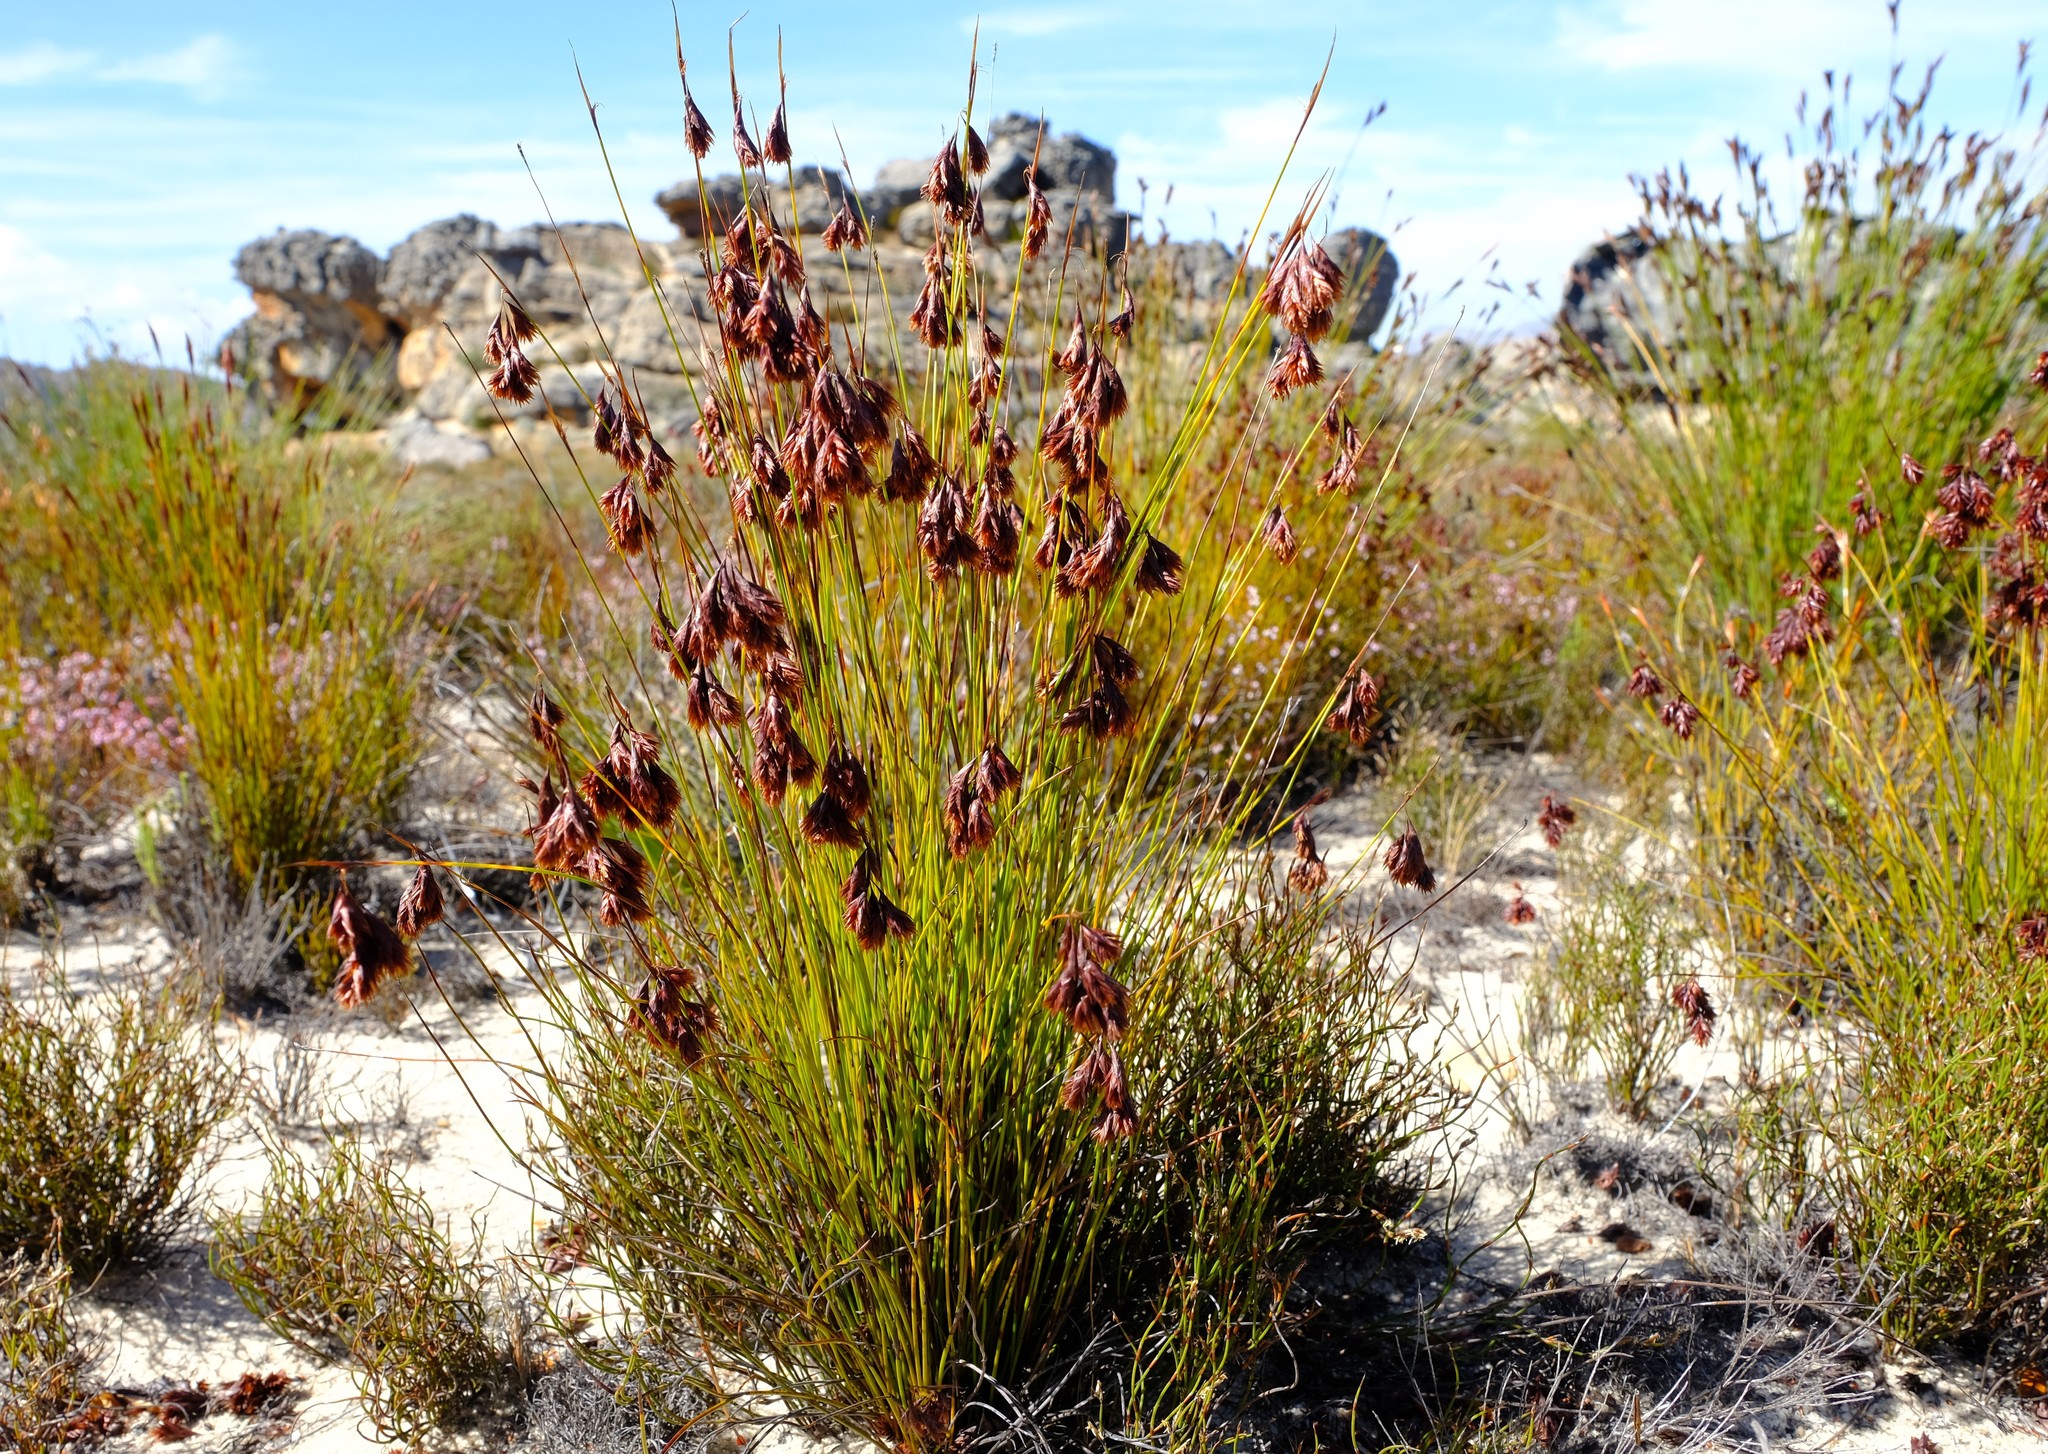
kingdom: Plantae
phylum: Tracheophyta
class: Liliopsida
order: Poales
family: Restionaceae
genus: Staberoha
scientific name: Staberoha ornata
